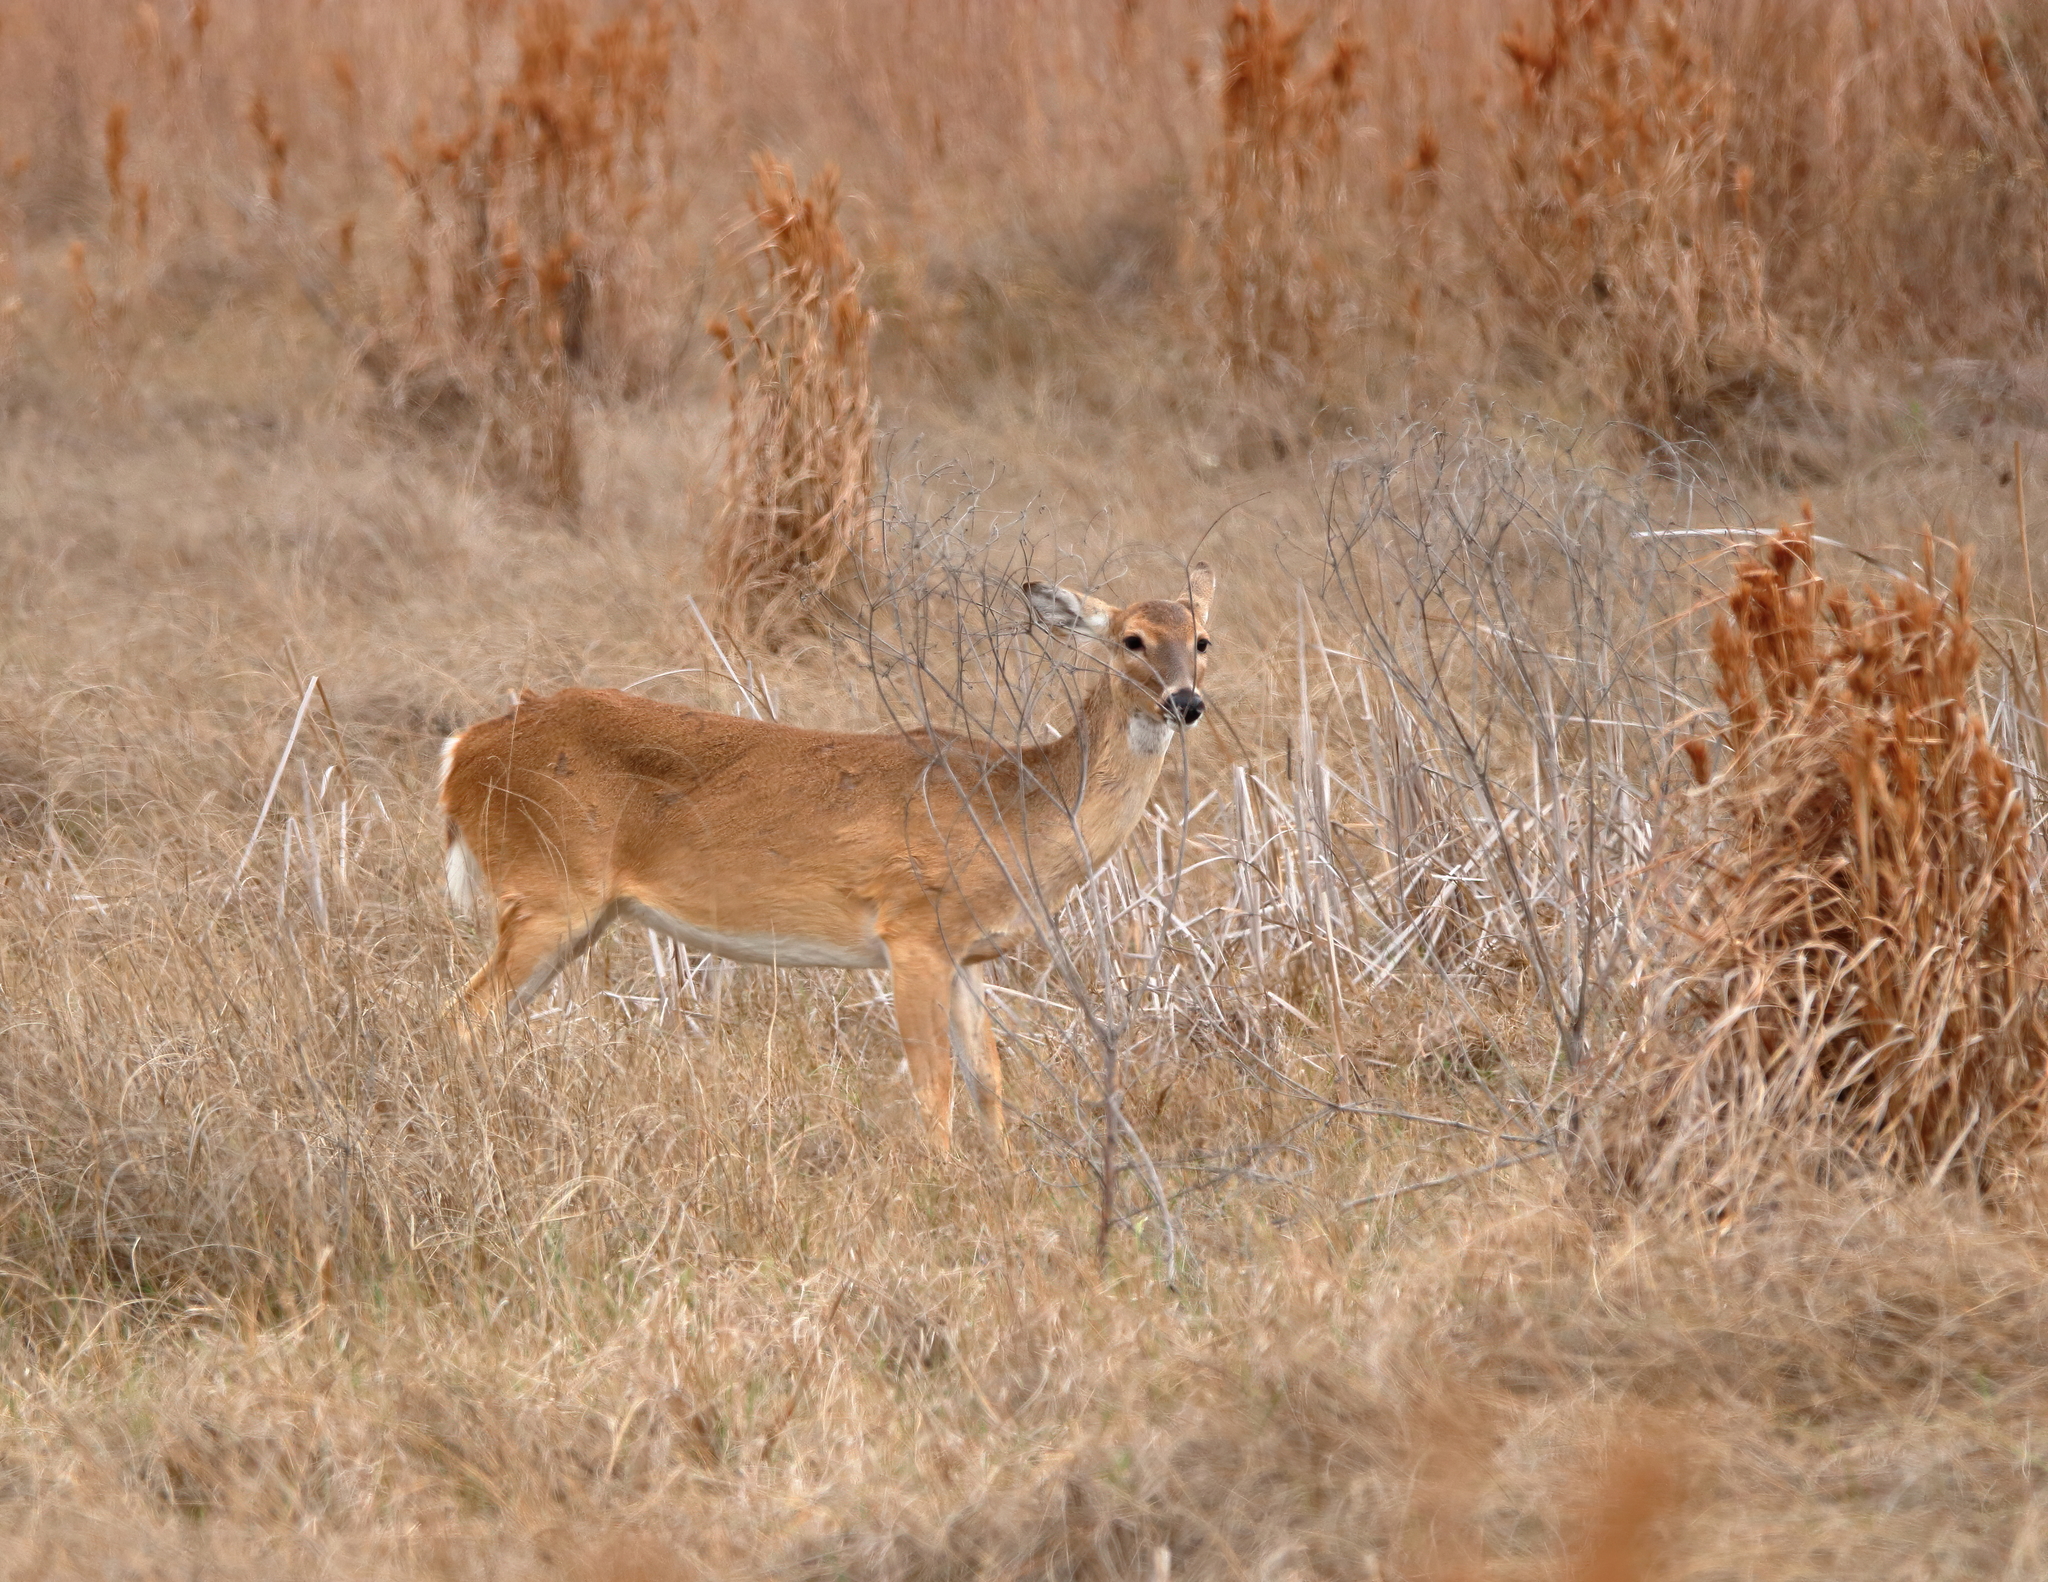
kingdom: Animalia
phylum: Chordata
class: Mammalia
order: Artiodactyla
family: Cervidae
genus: Odocoileus
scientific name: Odocoileus virginianus
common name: White-tailed deer
